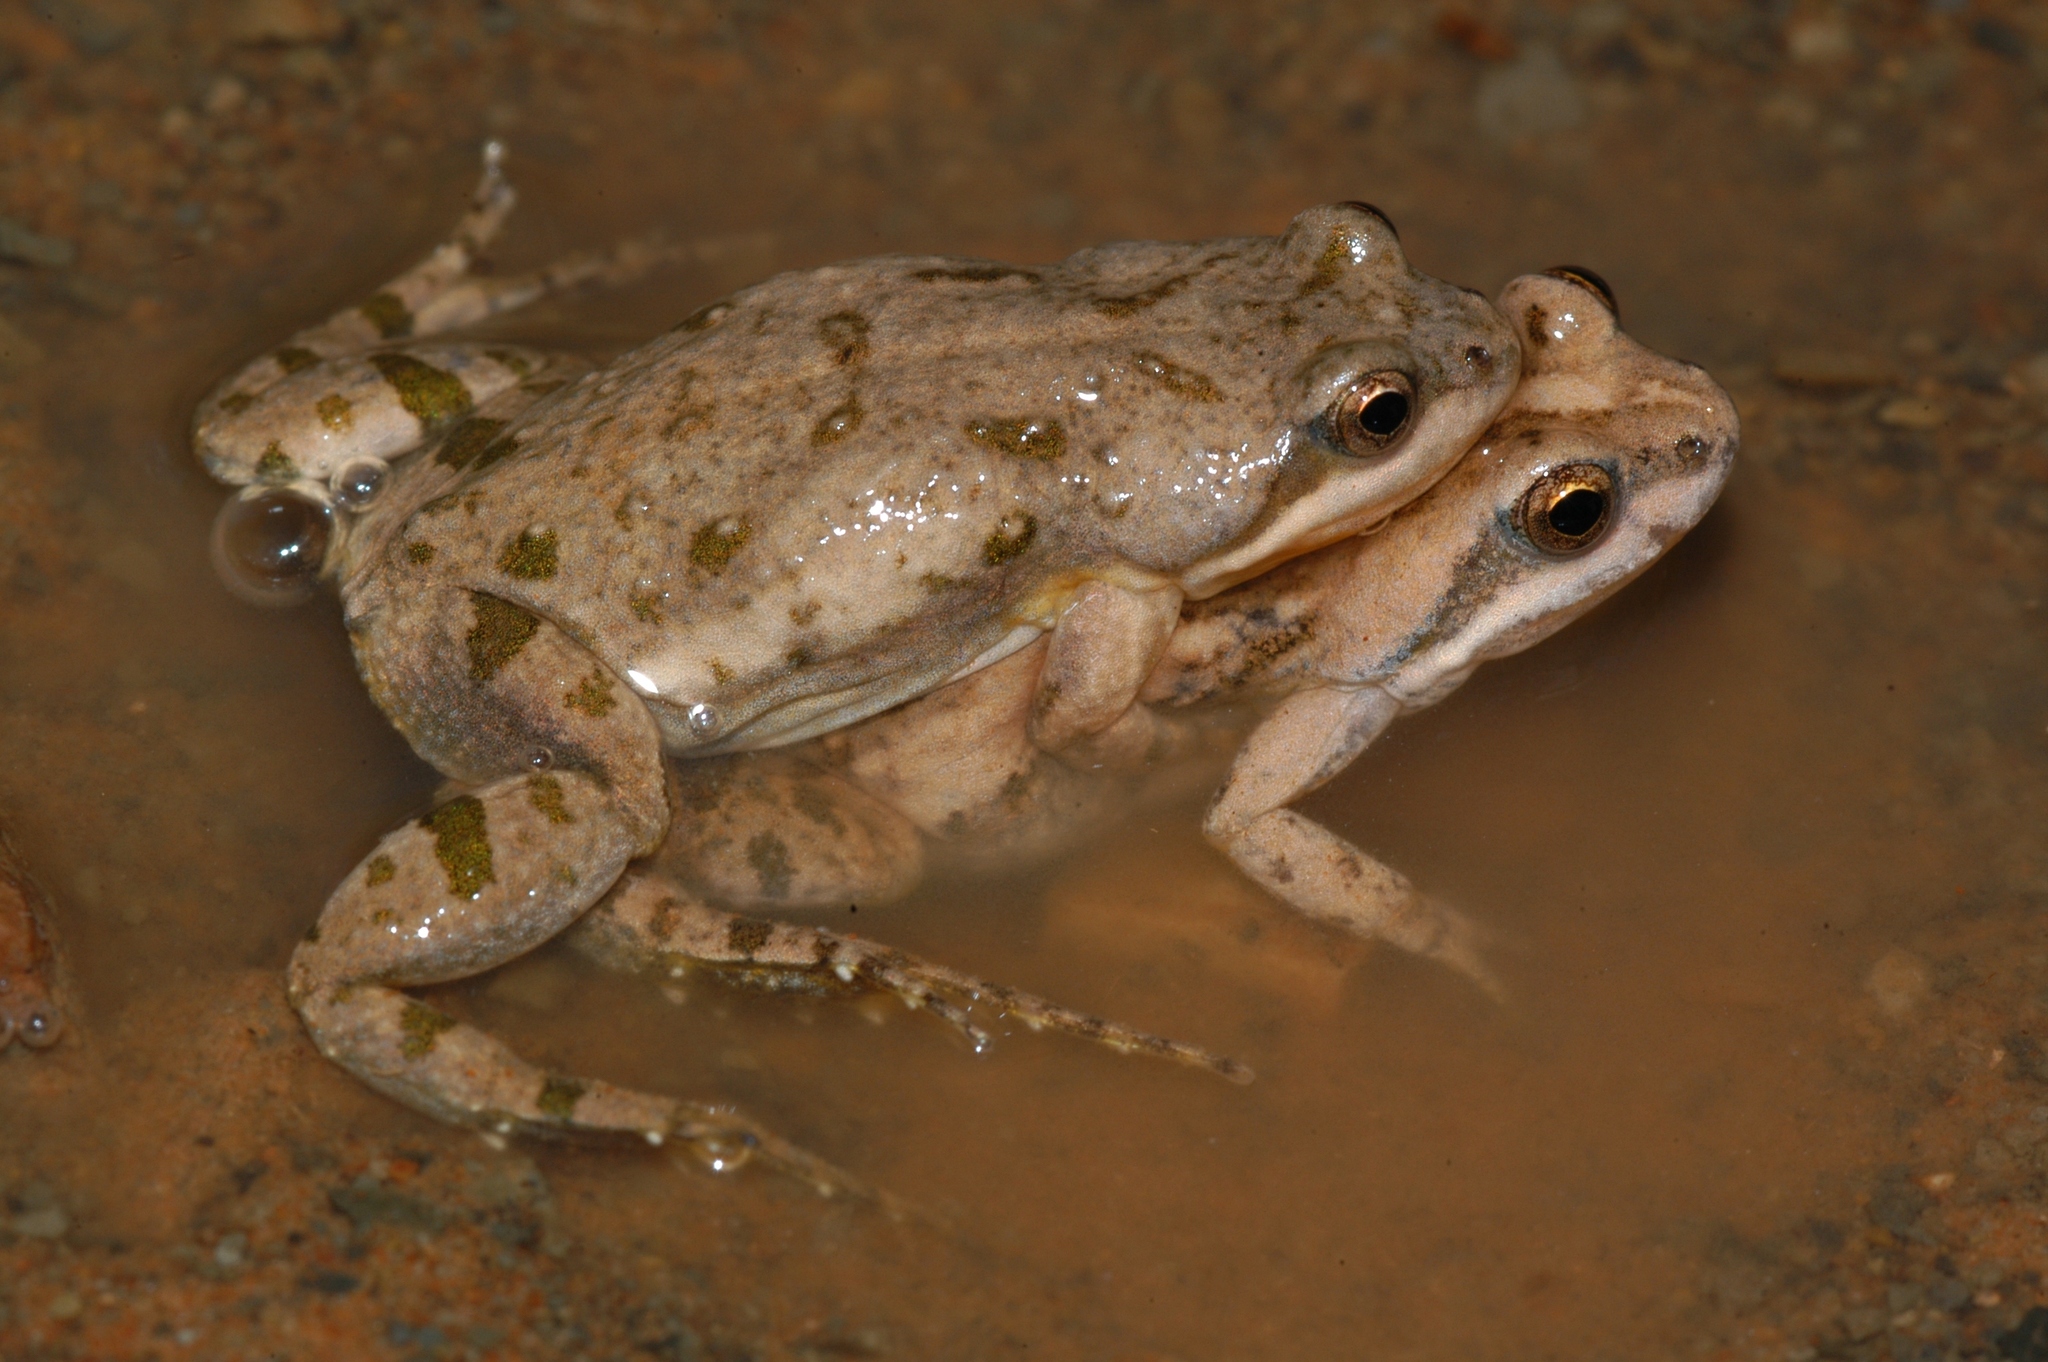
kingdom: Animalia
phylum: Chordata
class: Amphibia
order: Anura
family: Pyxicephalidae
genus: Cacosternum
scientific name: Cacosternum boettgeri
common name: Boettger's frog
